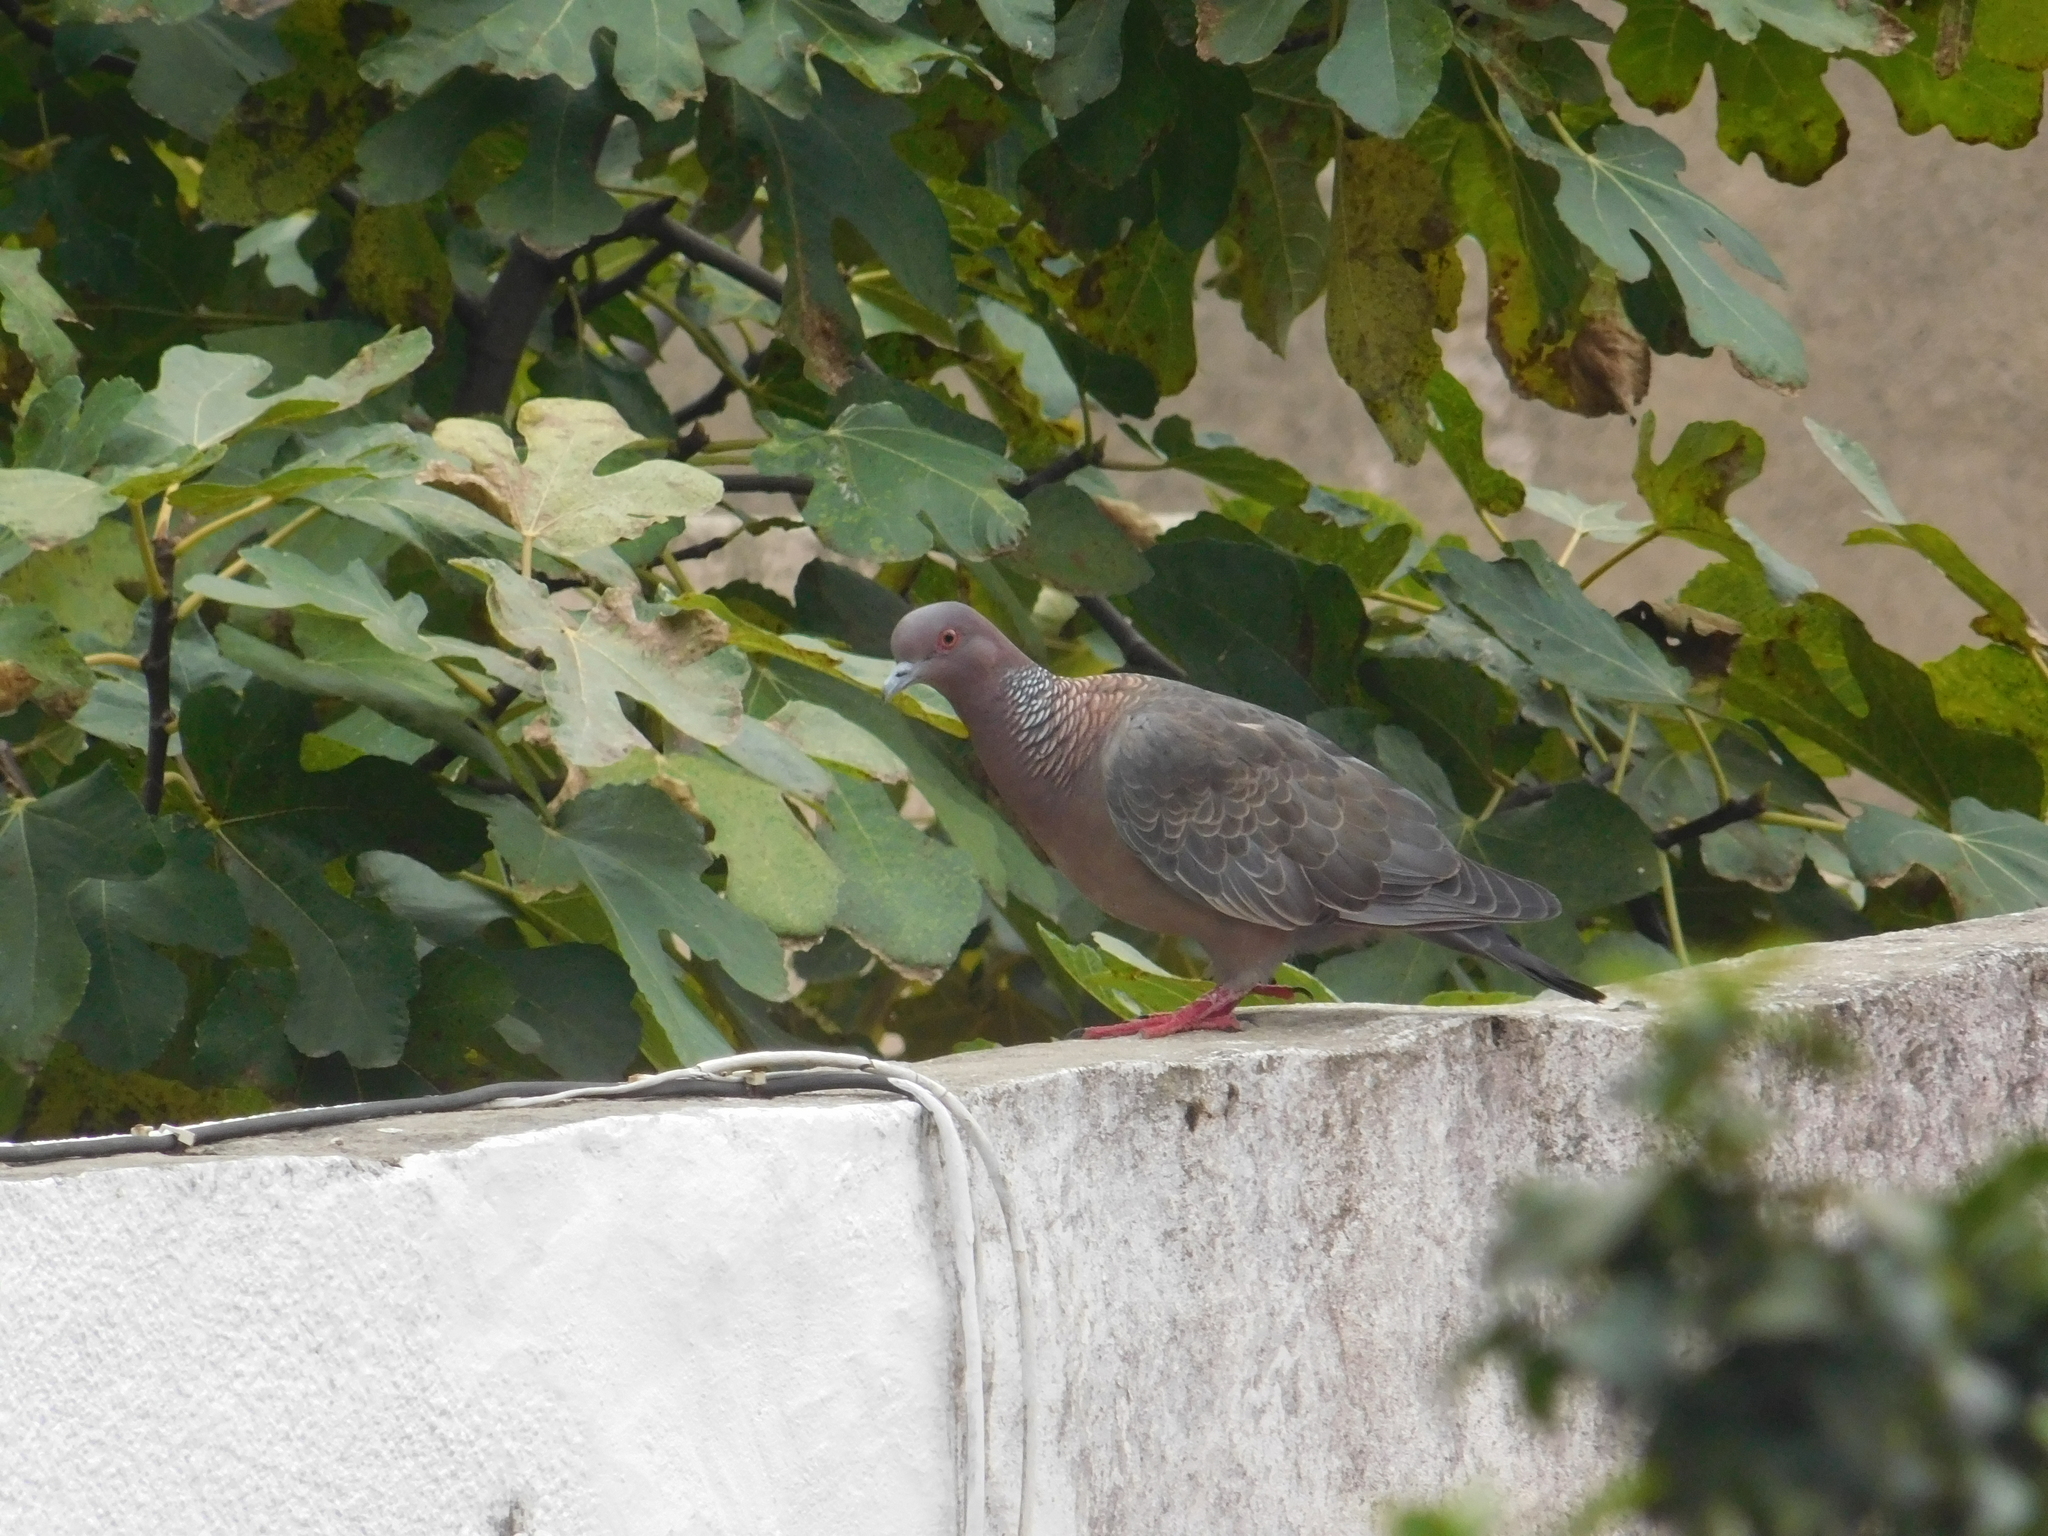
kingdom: Animalia
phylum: Chordata
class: Aves
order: Columbiformes
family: Columbidae
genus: Patagioenas
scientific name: Patagioenas picazuro
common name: Picazuro pigeon
